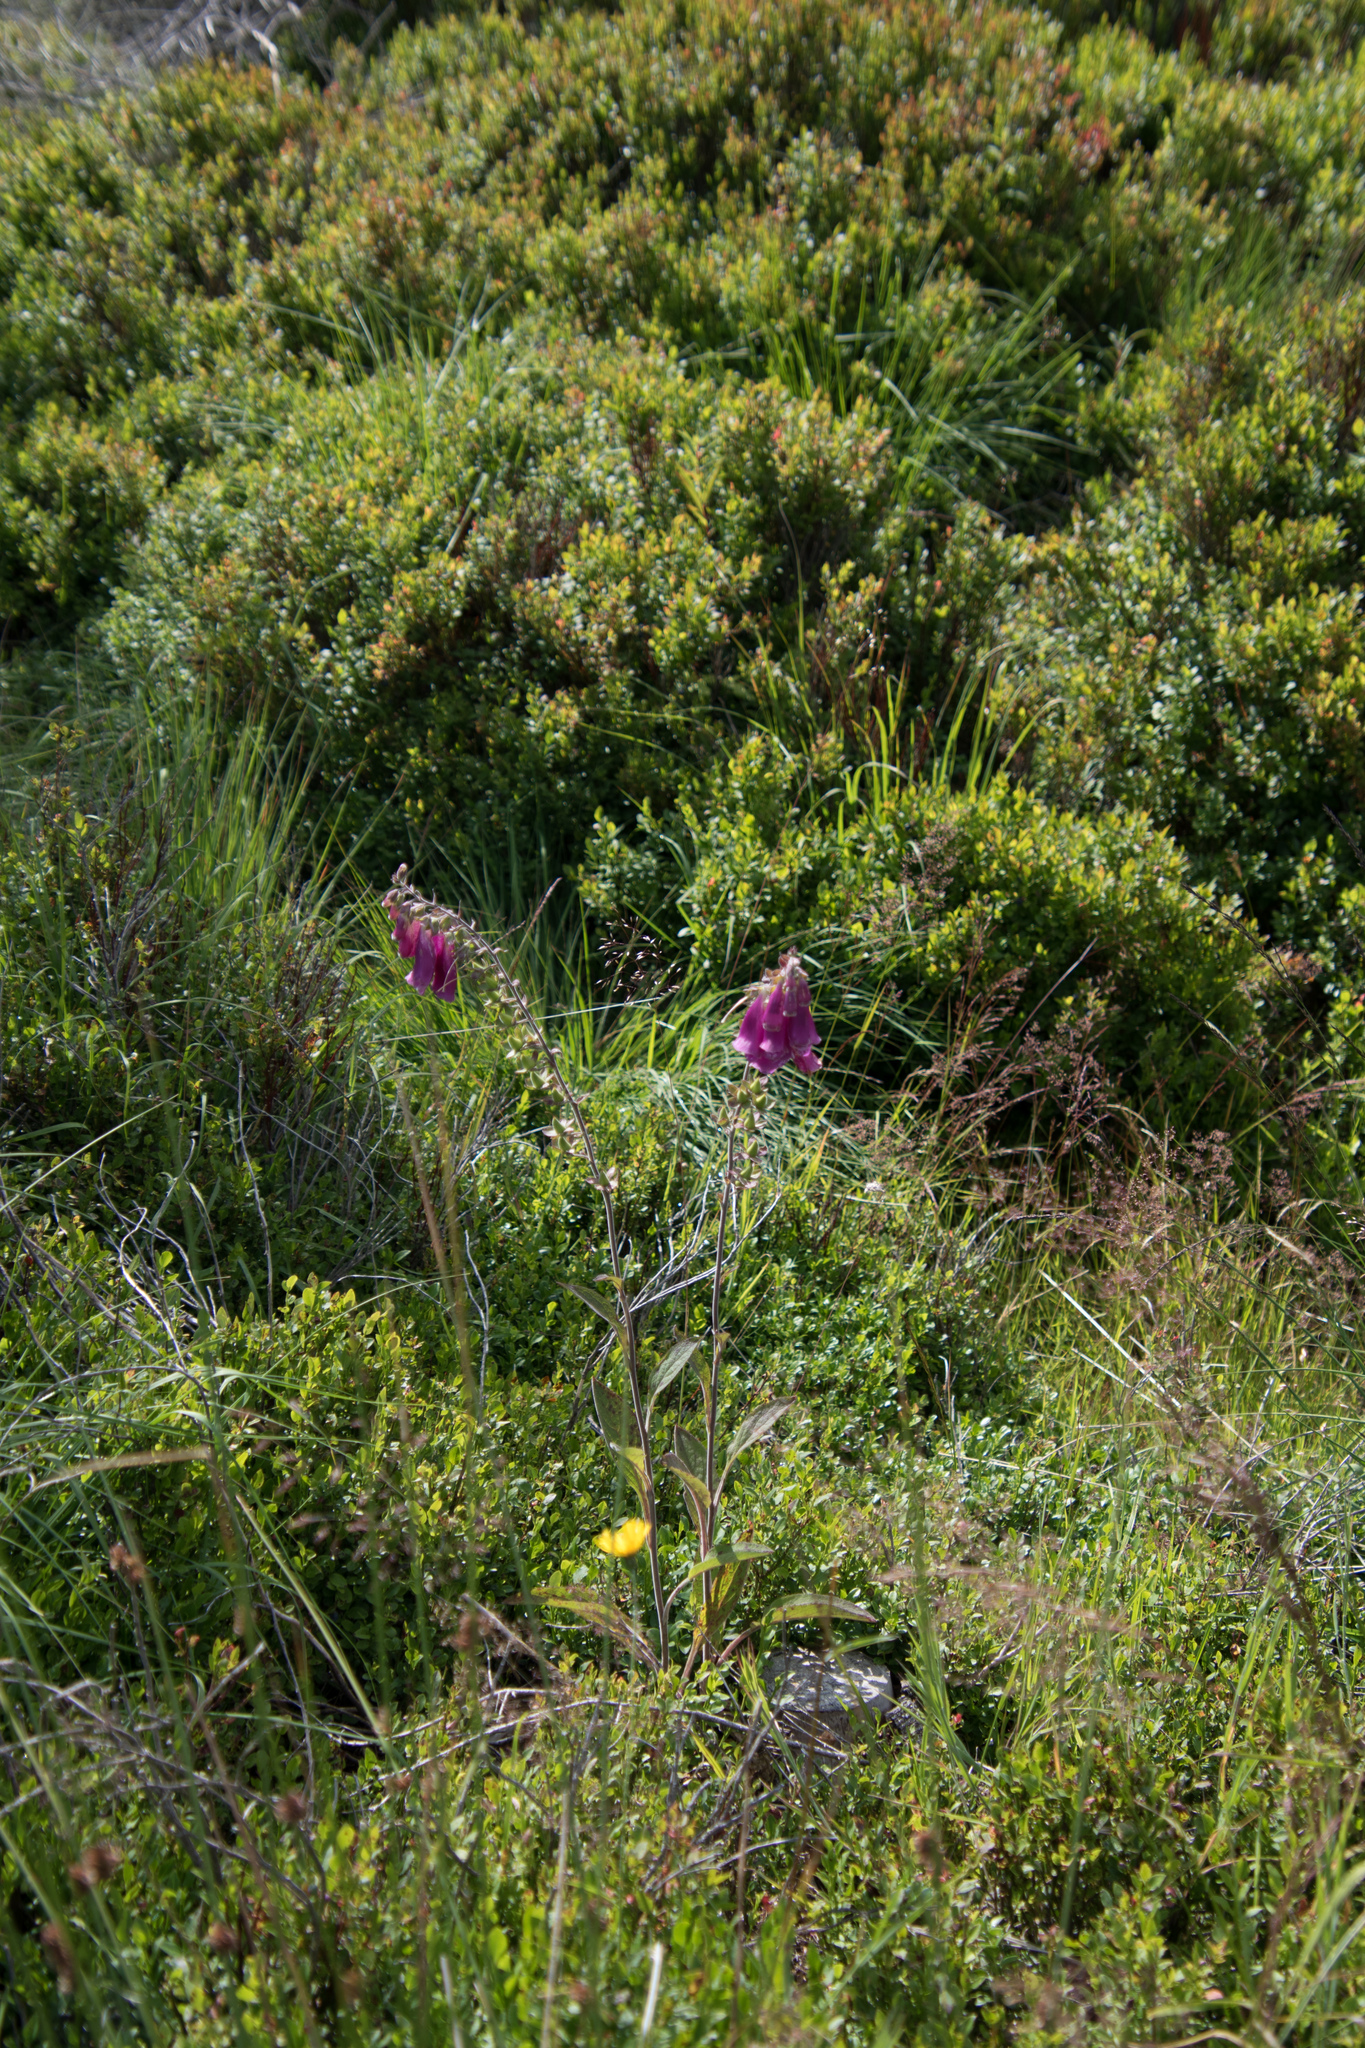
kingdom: Plantae
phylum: Tracheophyta
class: Magnoliopsida
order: Lamiales
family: Plantaginaceae
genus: Digitalis
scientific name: Digitalis purpurea
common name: Foxglove
